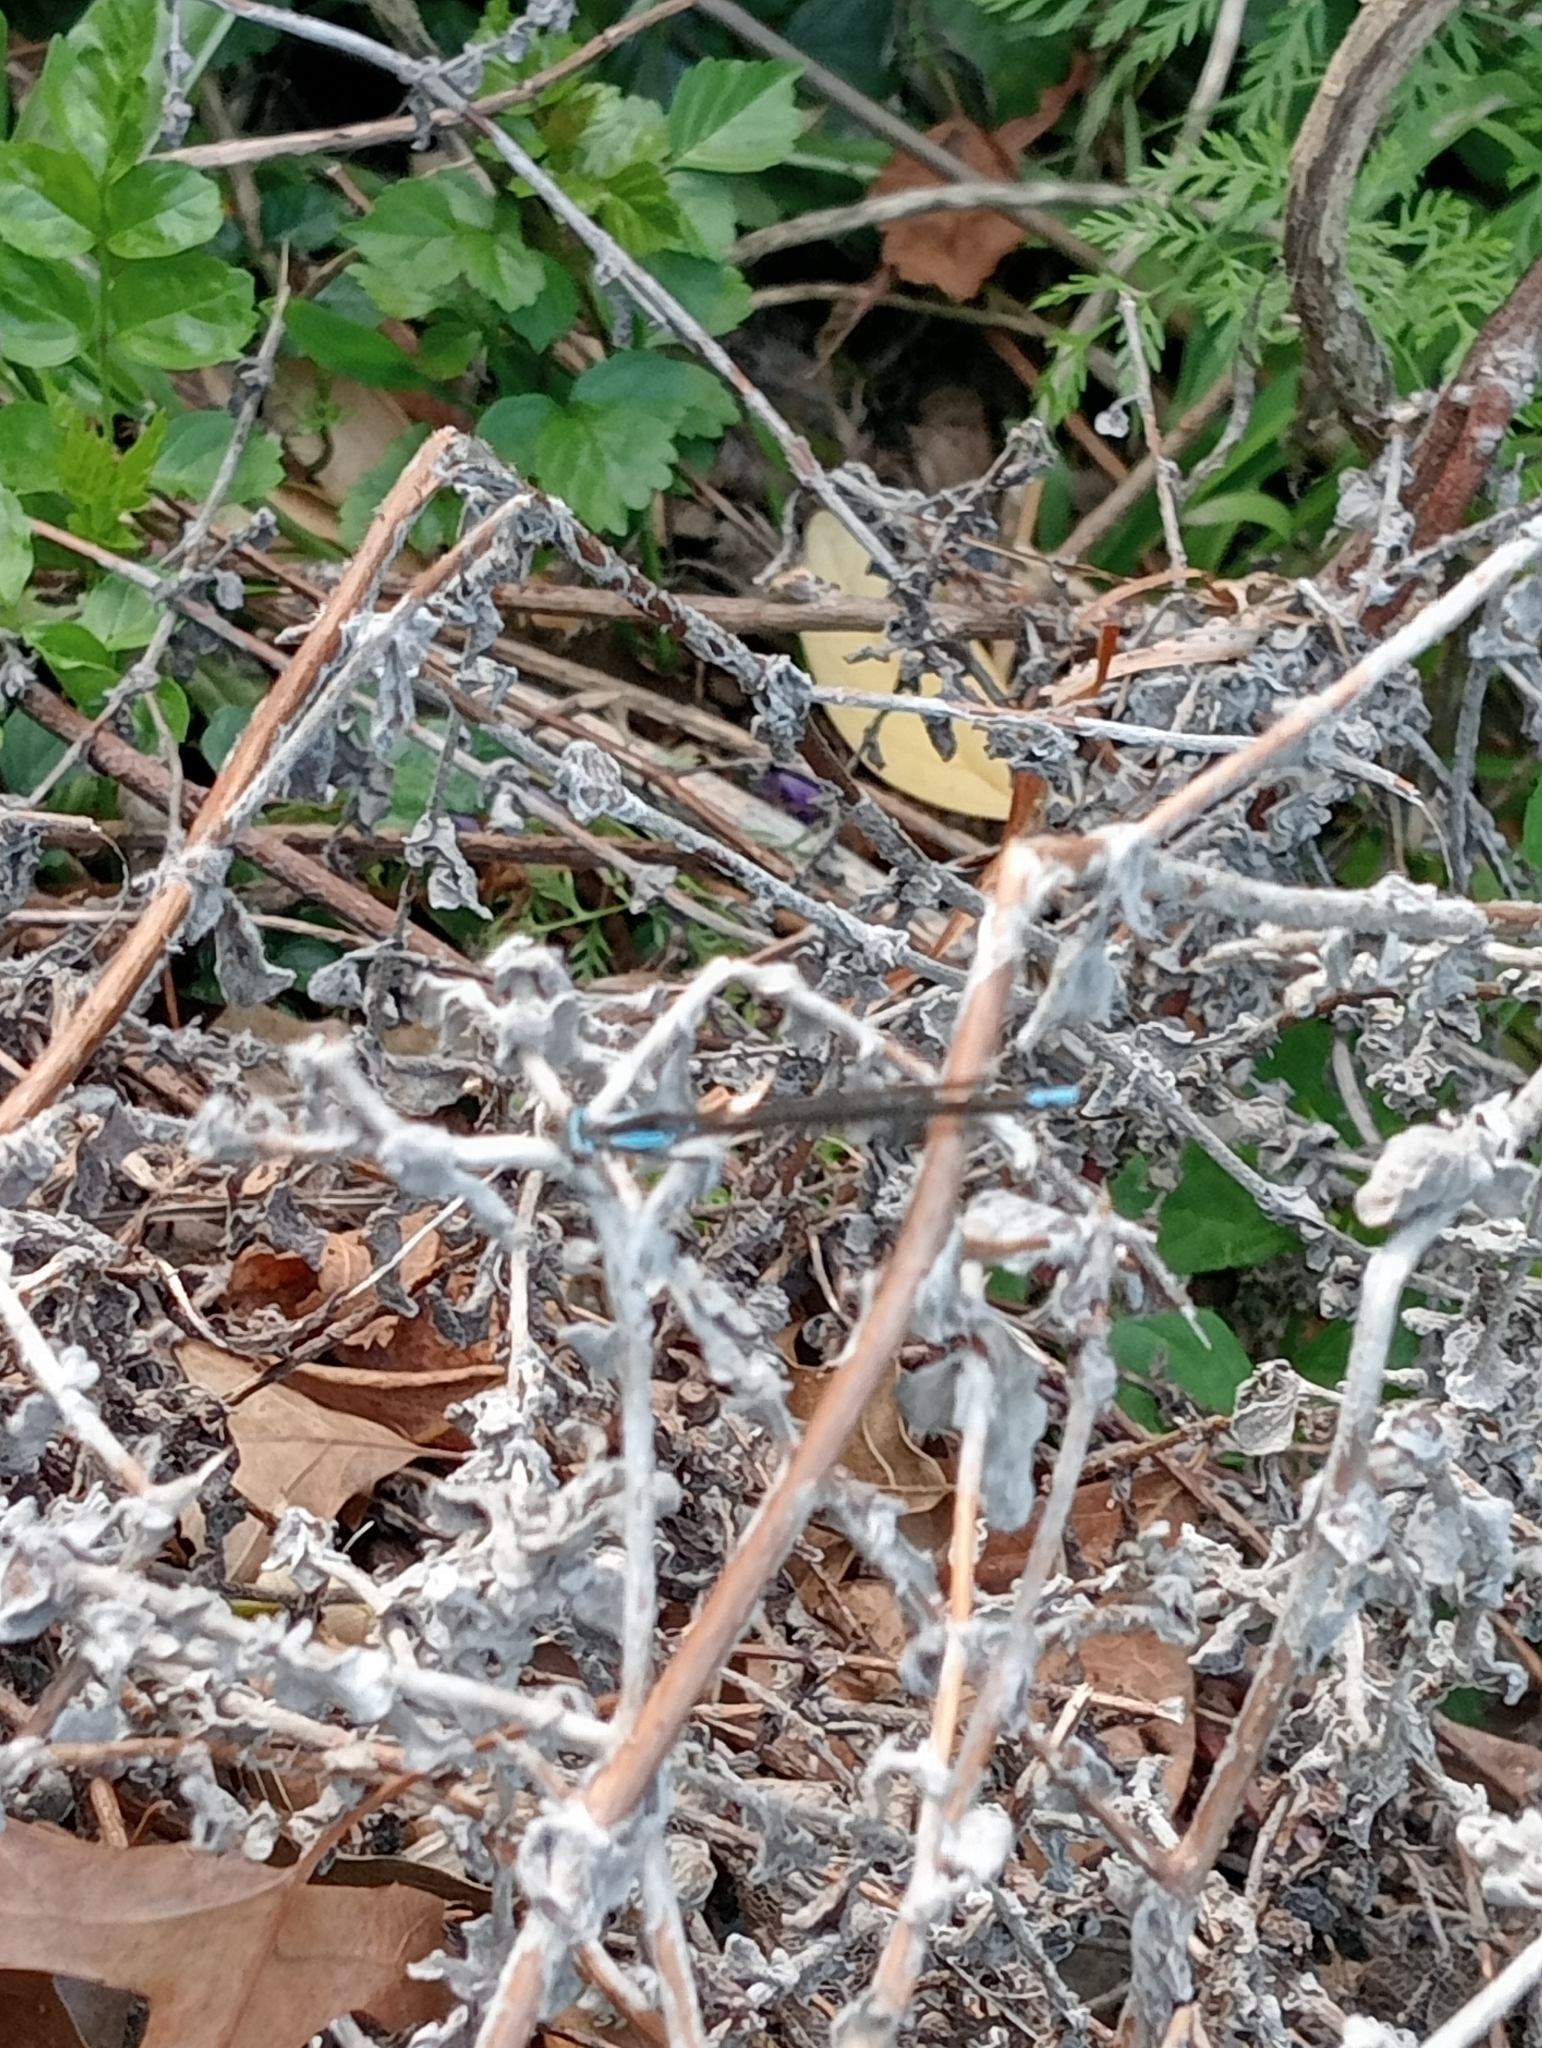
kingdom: Animalia
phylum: Arthropoda
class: Insecta
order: Odonata
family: Platycnemididae
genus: Spesbona
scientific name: Spesbona angusta
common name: Ceres featherlegs
